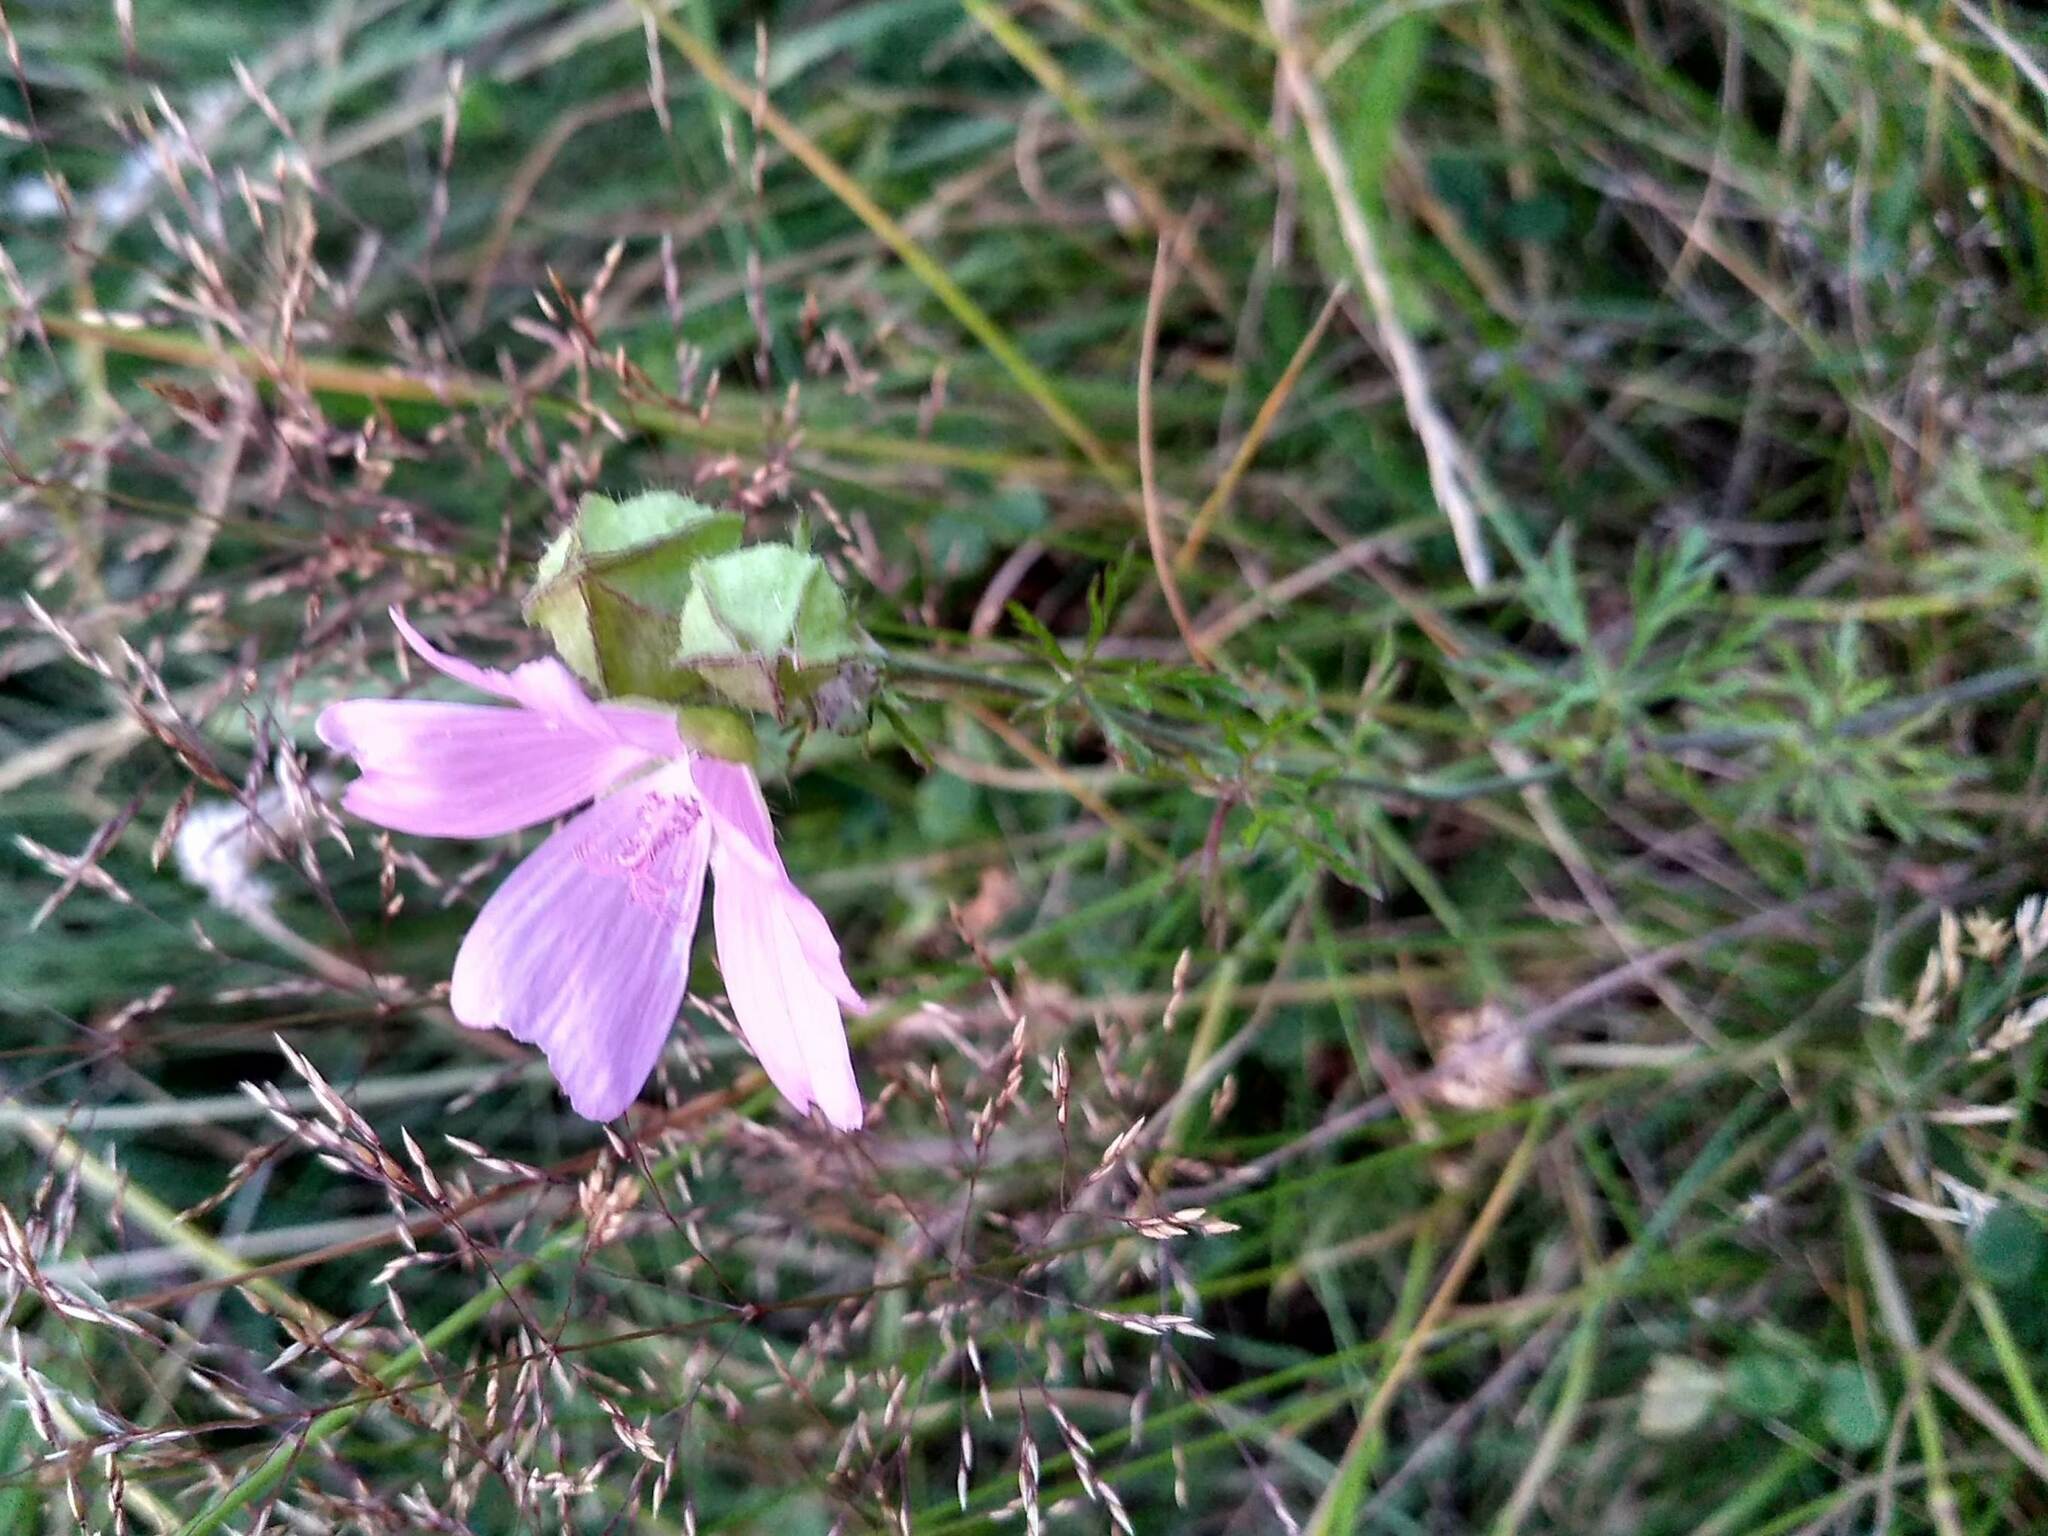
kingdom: Plantae
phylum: Tracheophyta
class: Magnoliopsida
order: Malvales
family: Malvaceae
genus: Malva
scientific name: Malva moschata
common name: Musk mallow
